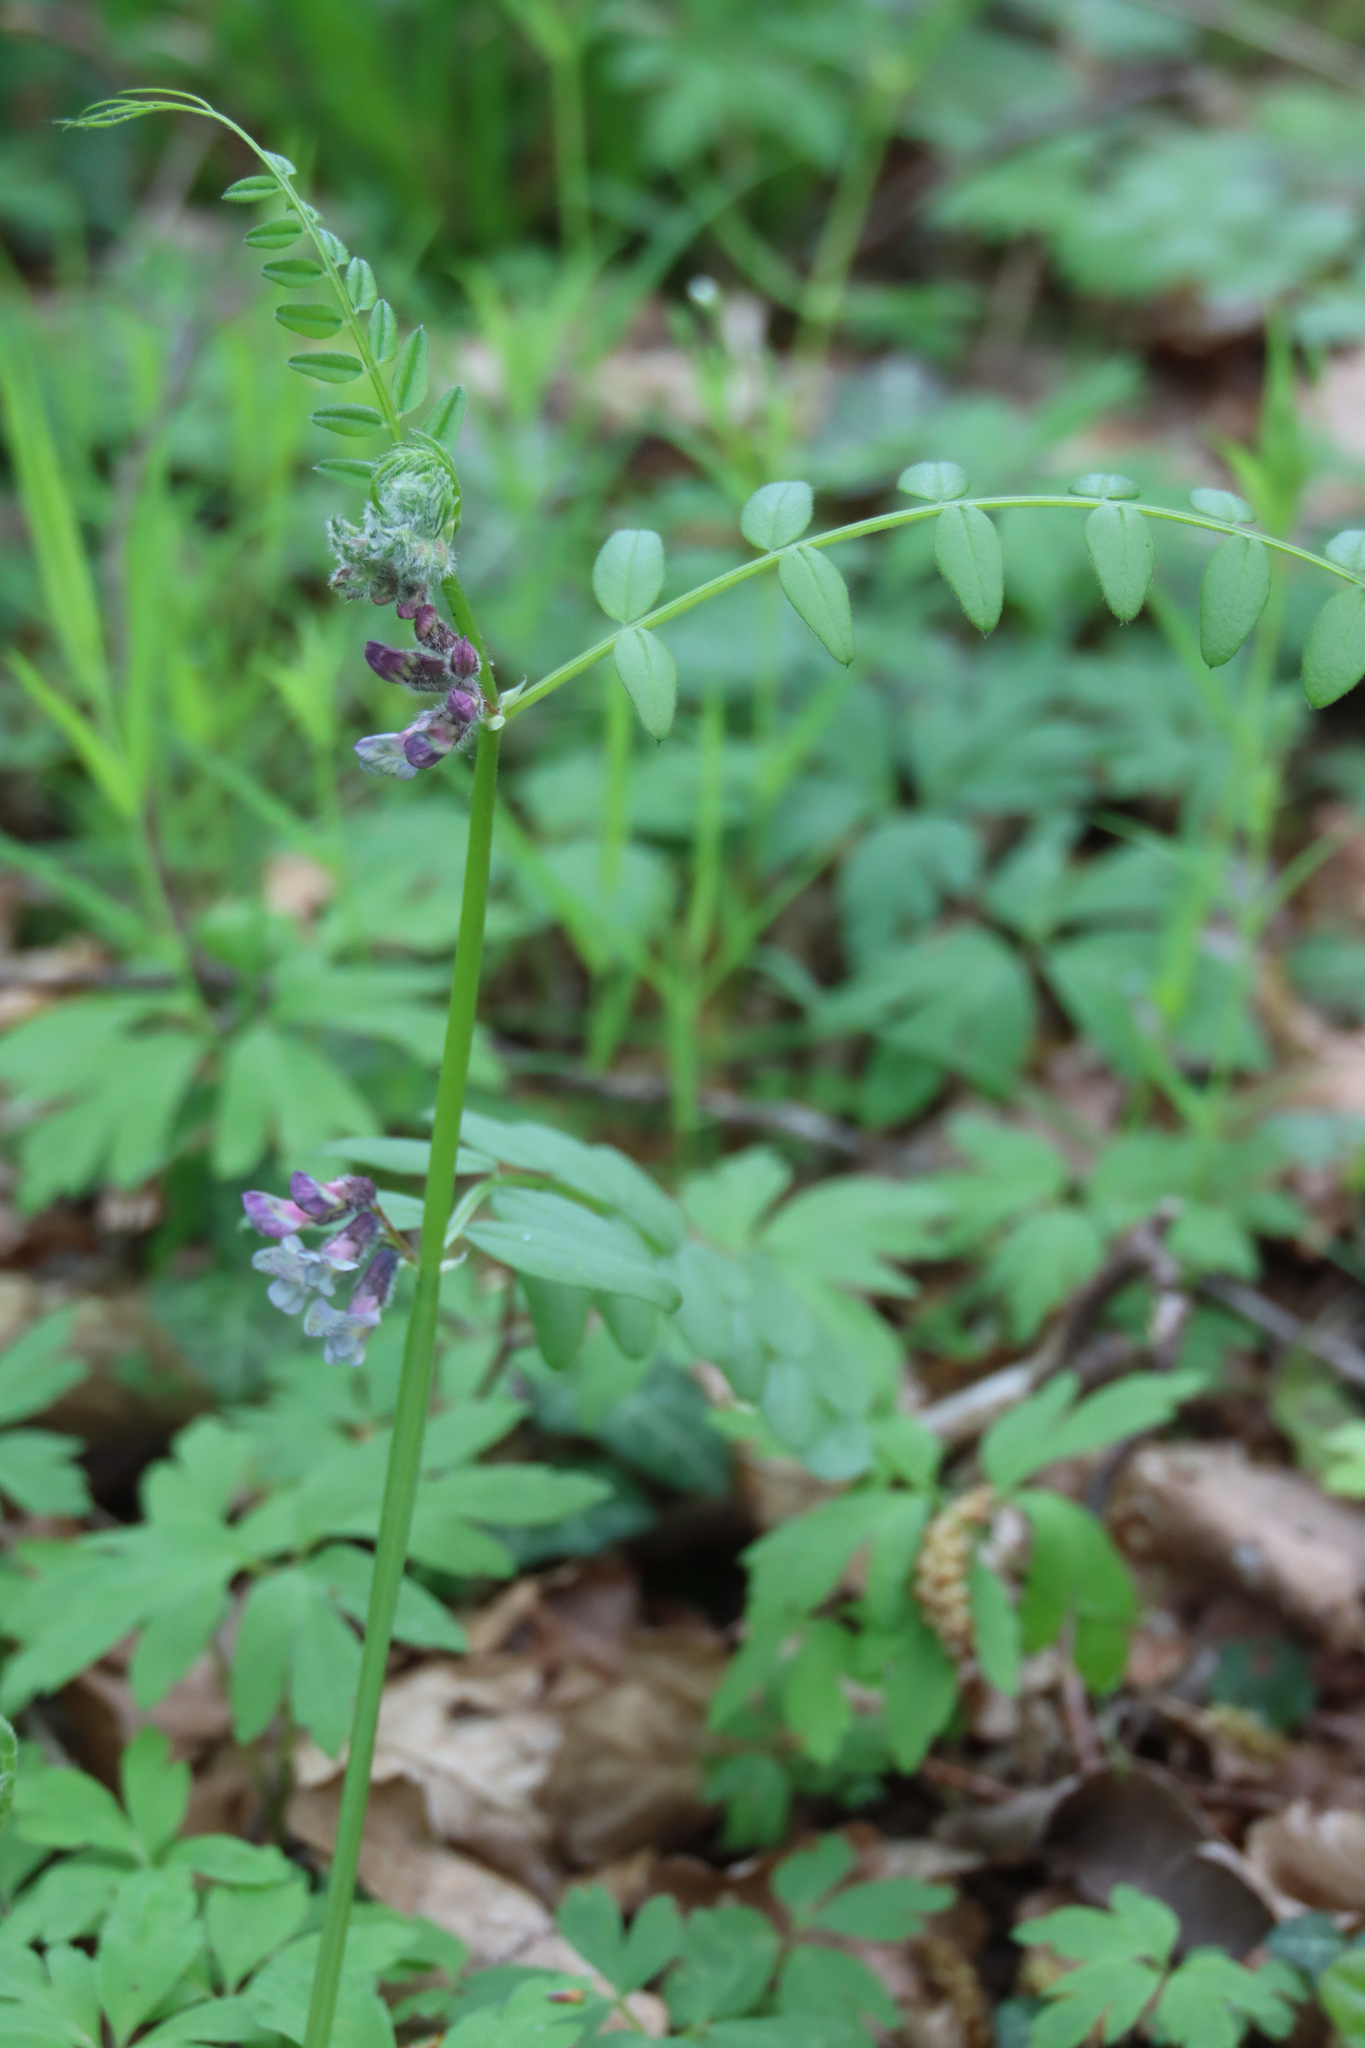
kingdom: Plantae
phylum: Tracheophyta
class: Magnoliopsida
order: Fabales
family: Fabaceae
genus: Vicia
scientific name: Vicia sepium
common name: Bush vetch
